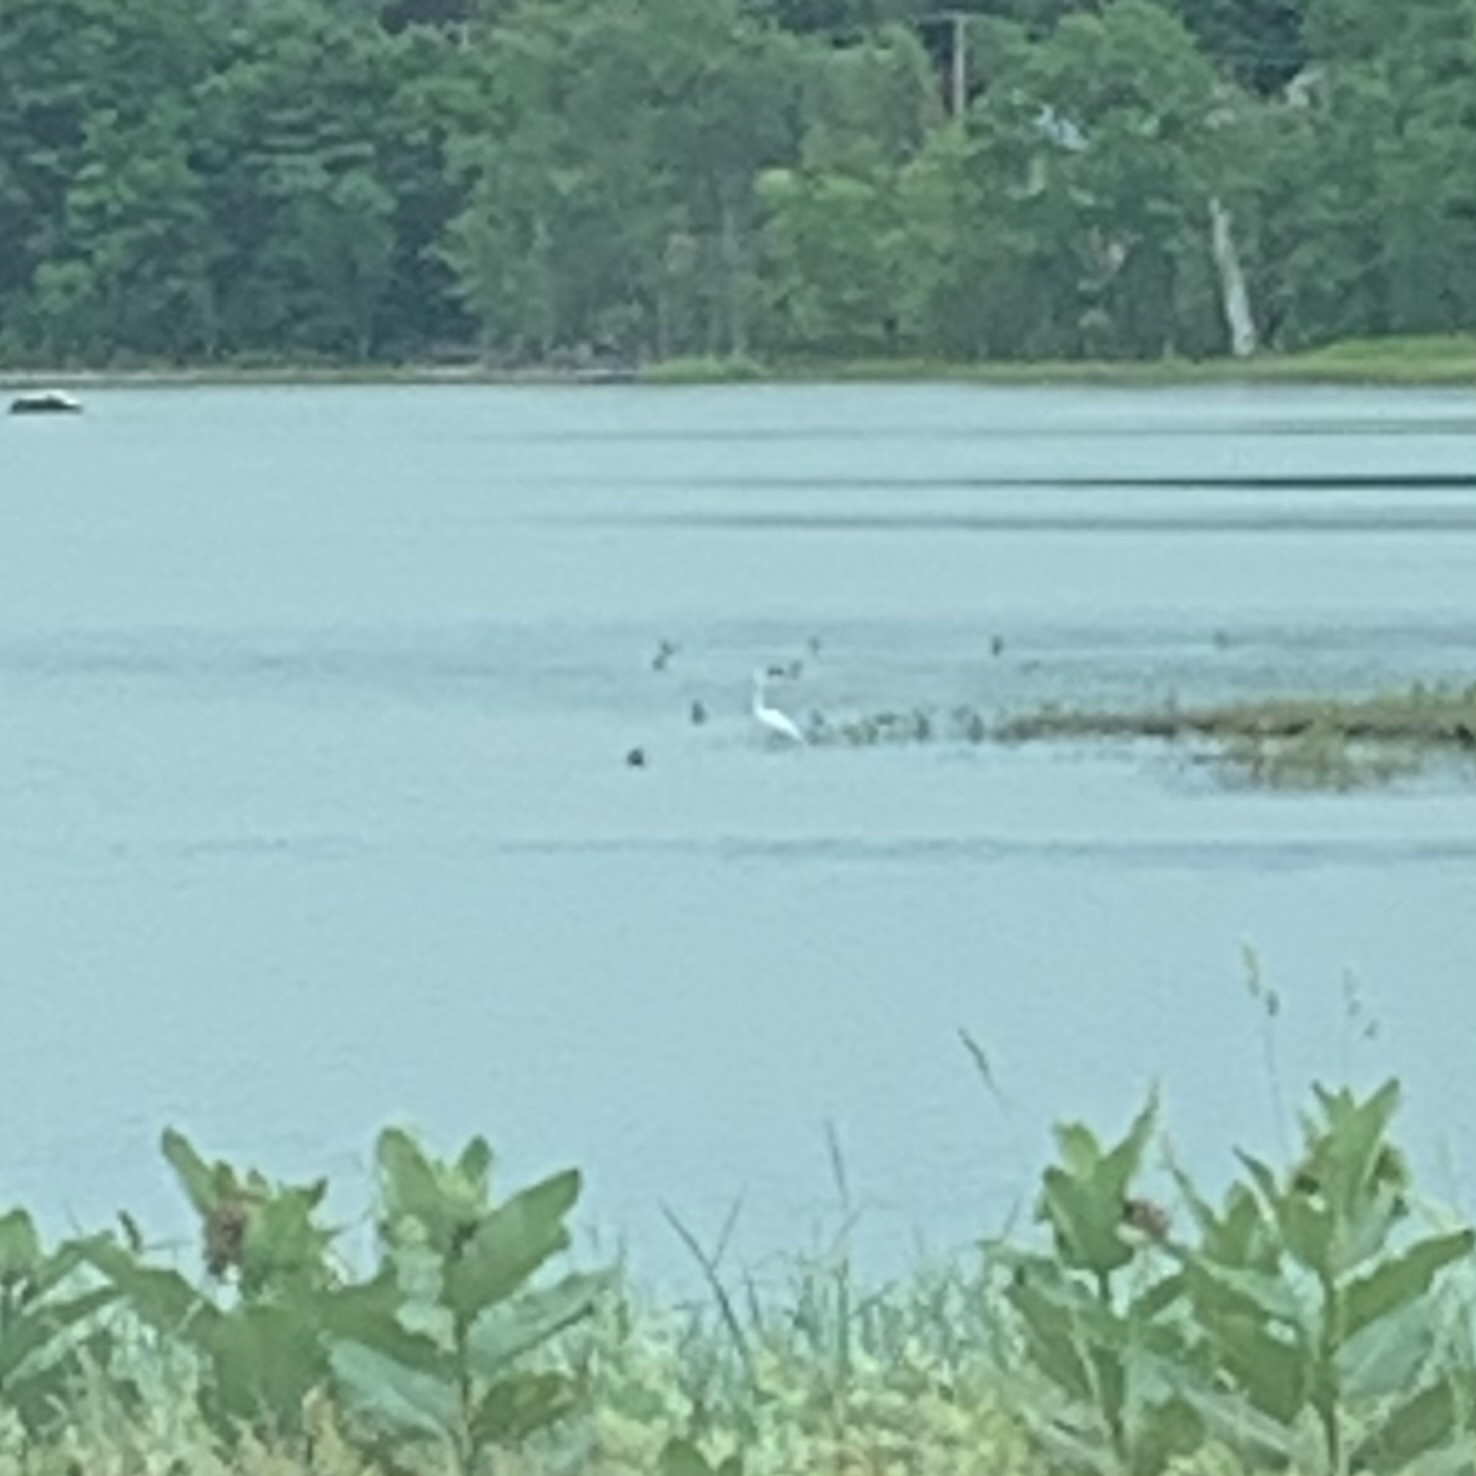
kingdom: Animalia
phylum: Chordata
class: Aves
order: Pelecaniformes
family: Ardeidae
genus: Ardea
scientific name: Ardea alba
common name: Great egret
